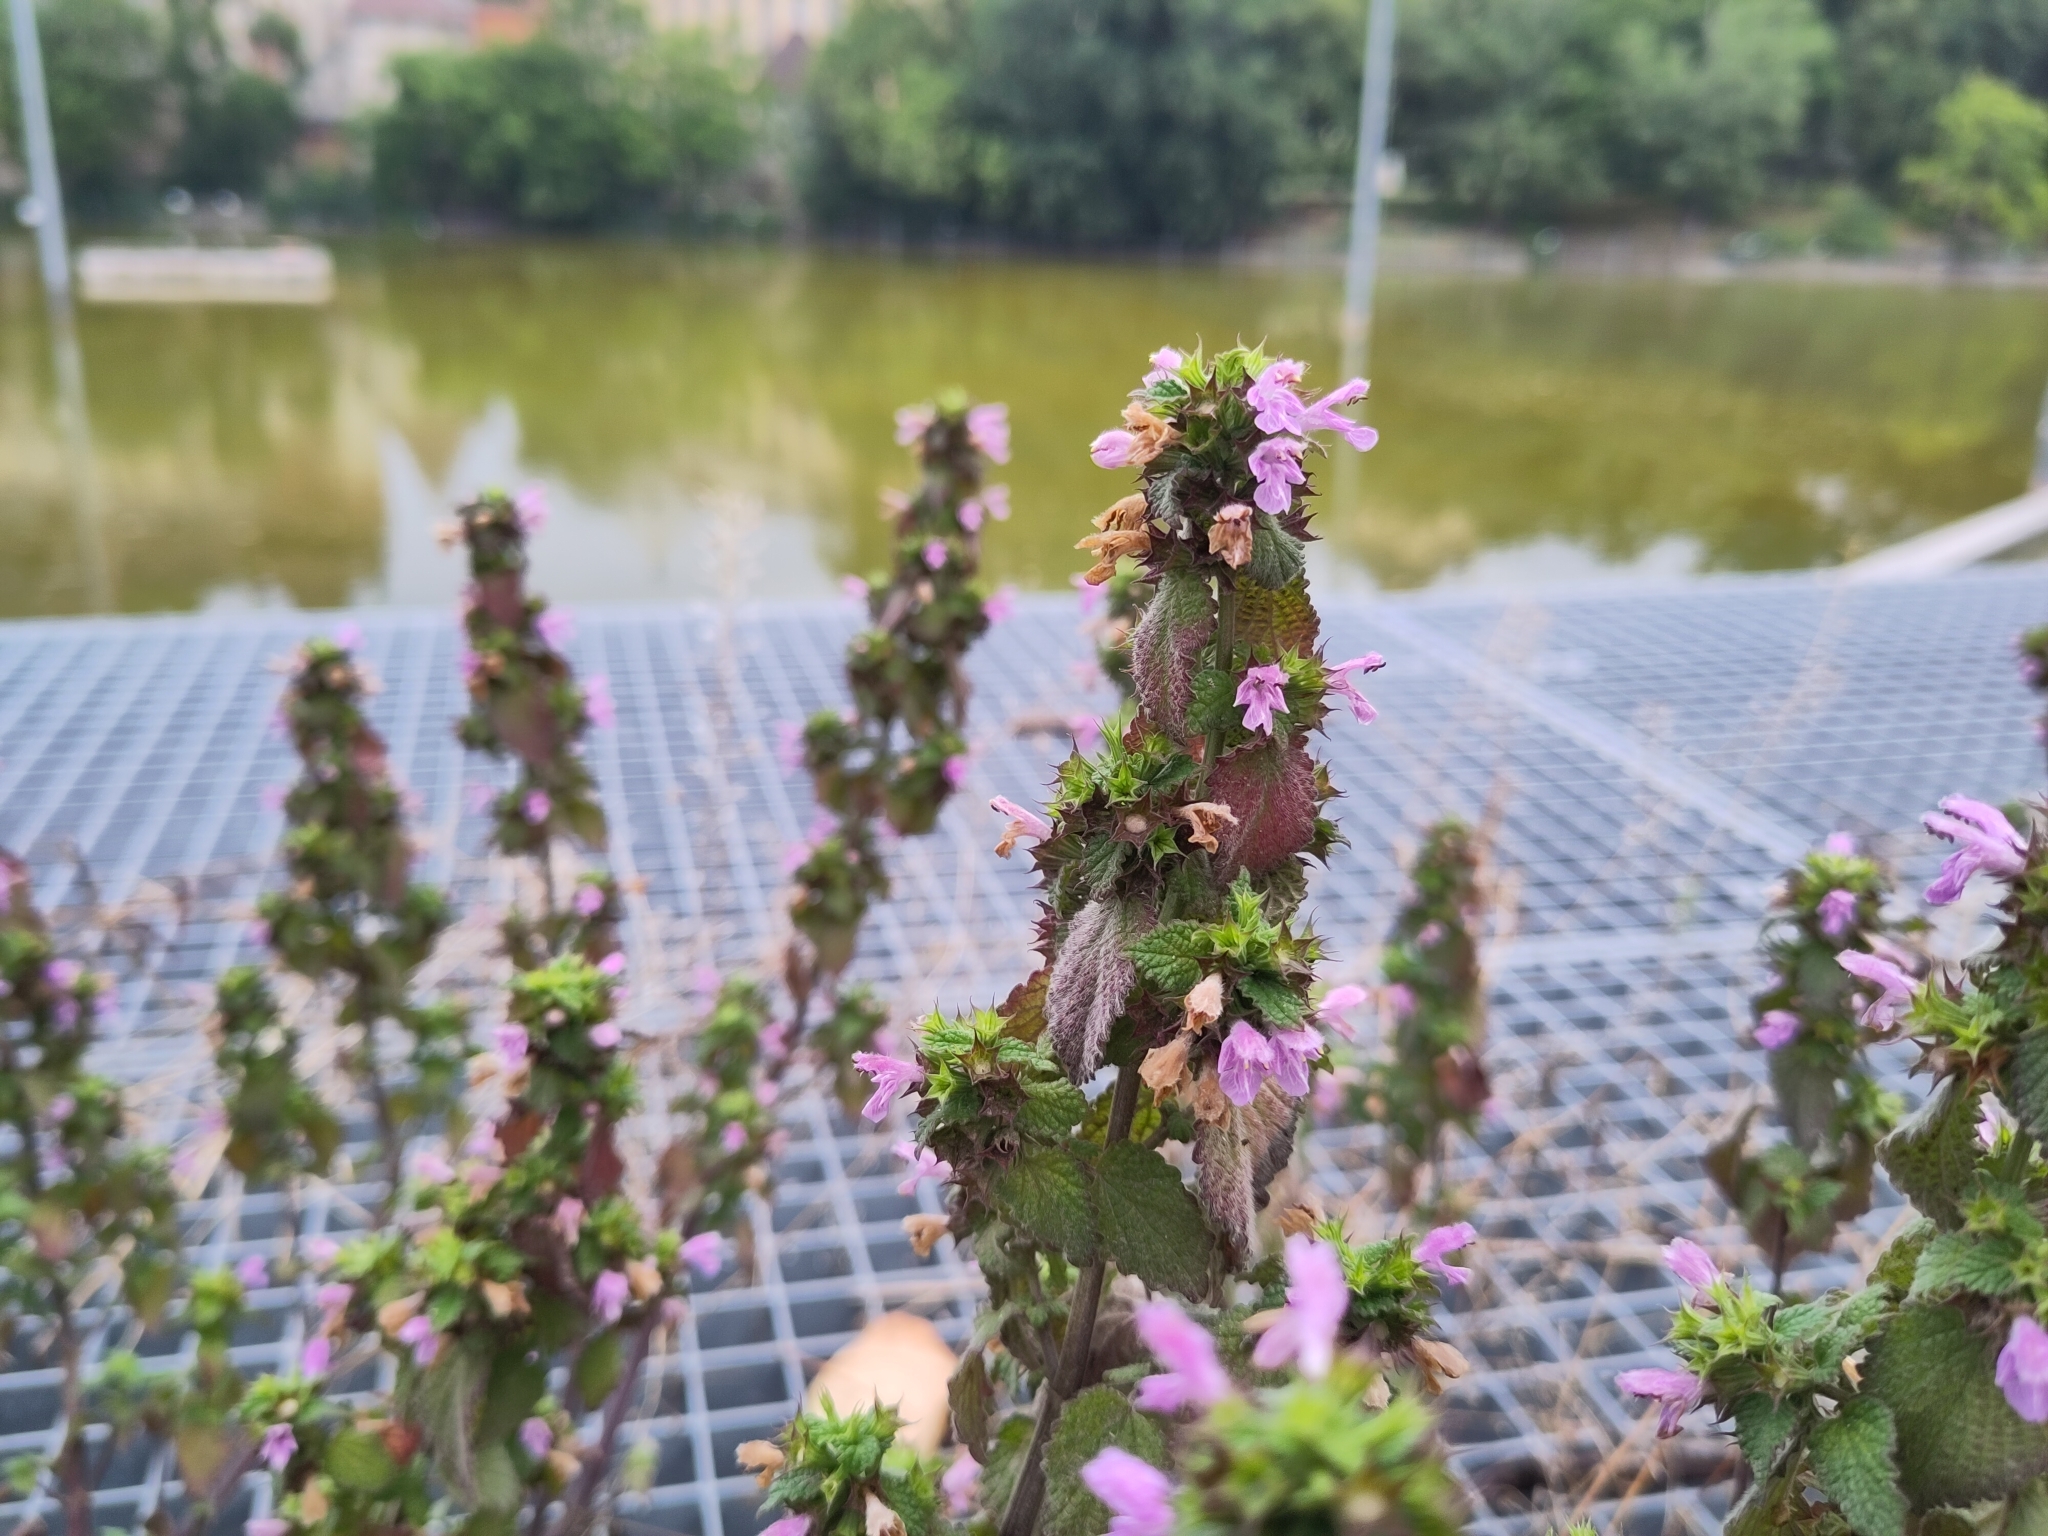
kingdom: Plantae
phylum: Tracheophyta
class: Magnoliopsida
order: Lamiales
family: Lamiaceae
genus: Ballota
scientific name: Ballota nigra
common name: Black horehound
